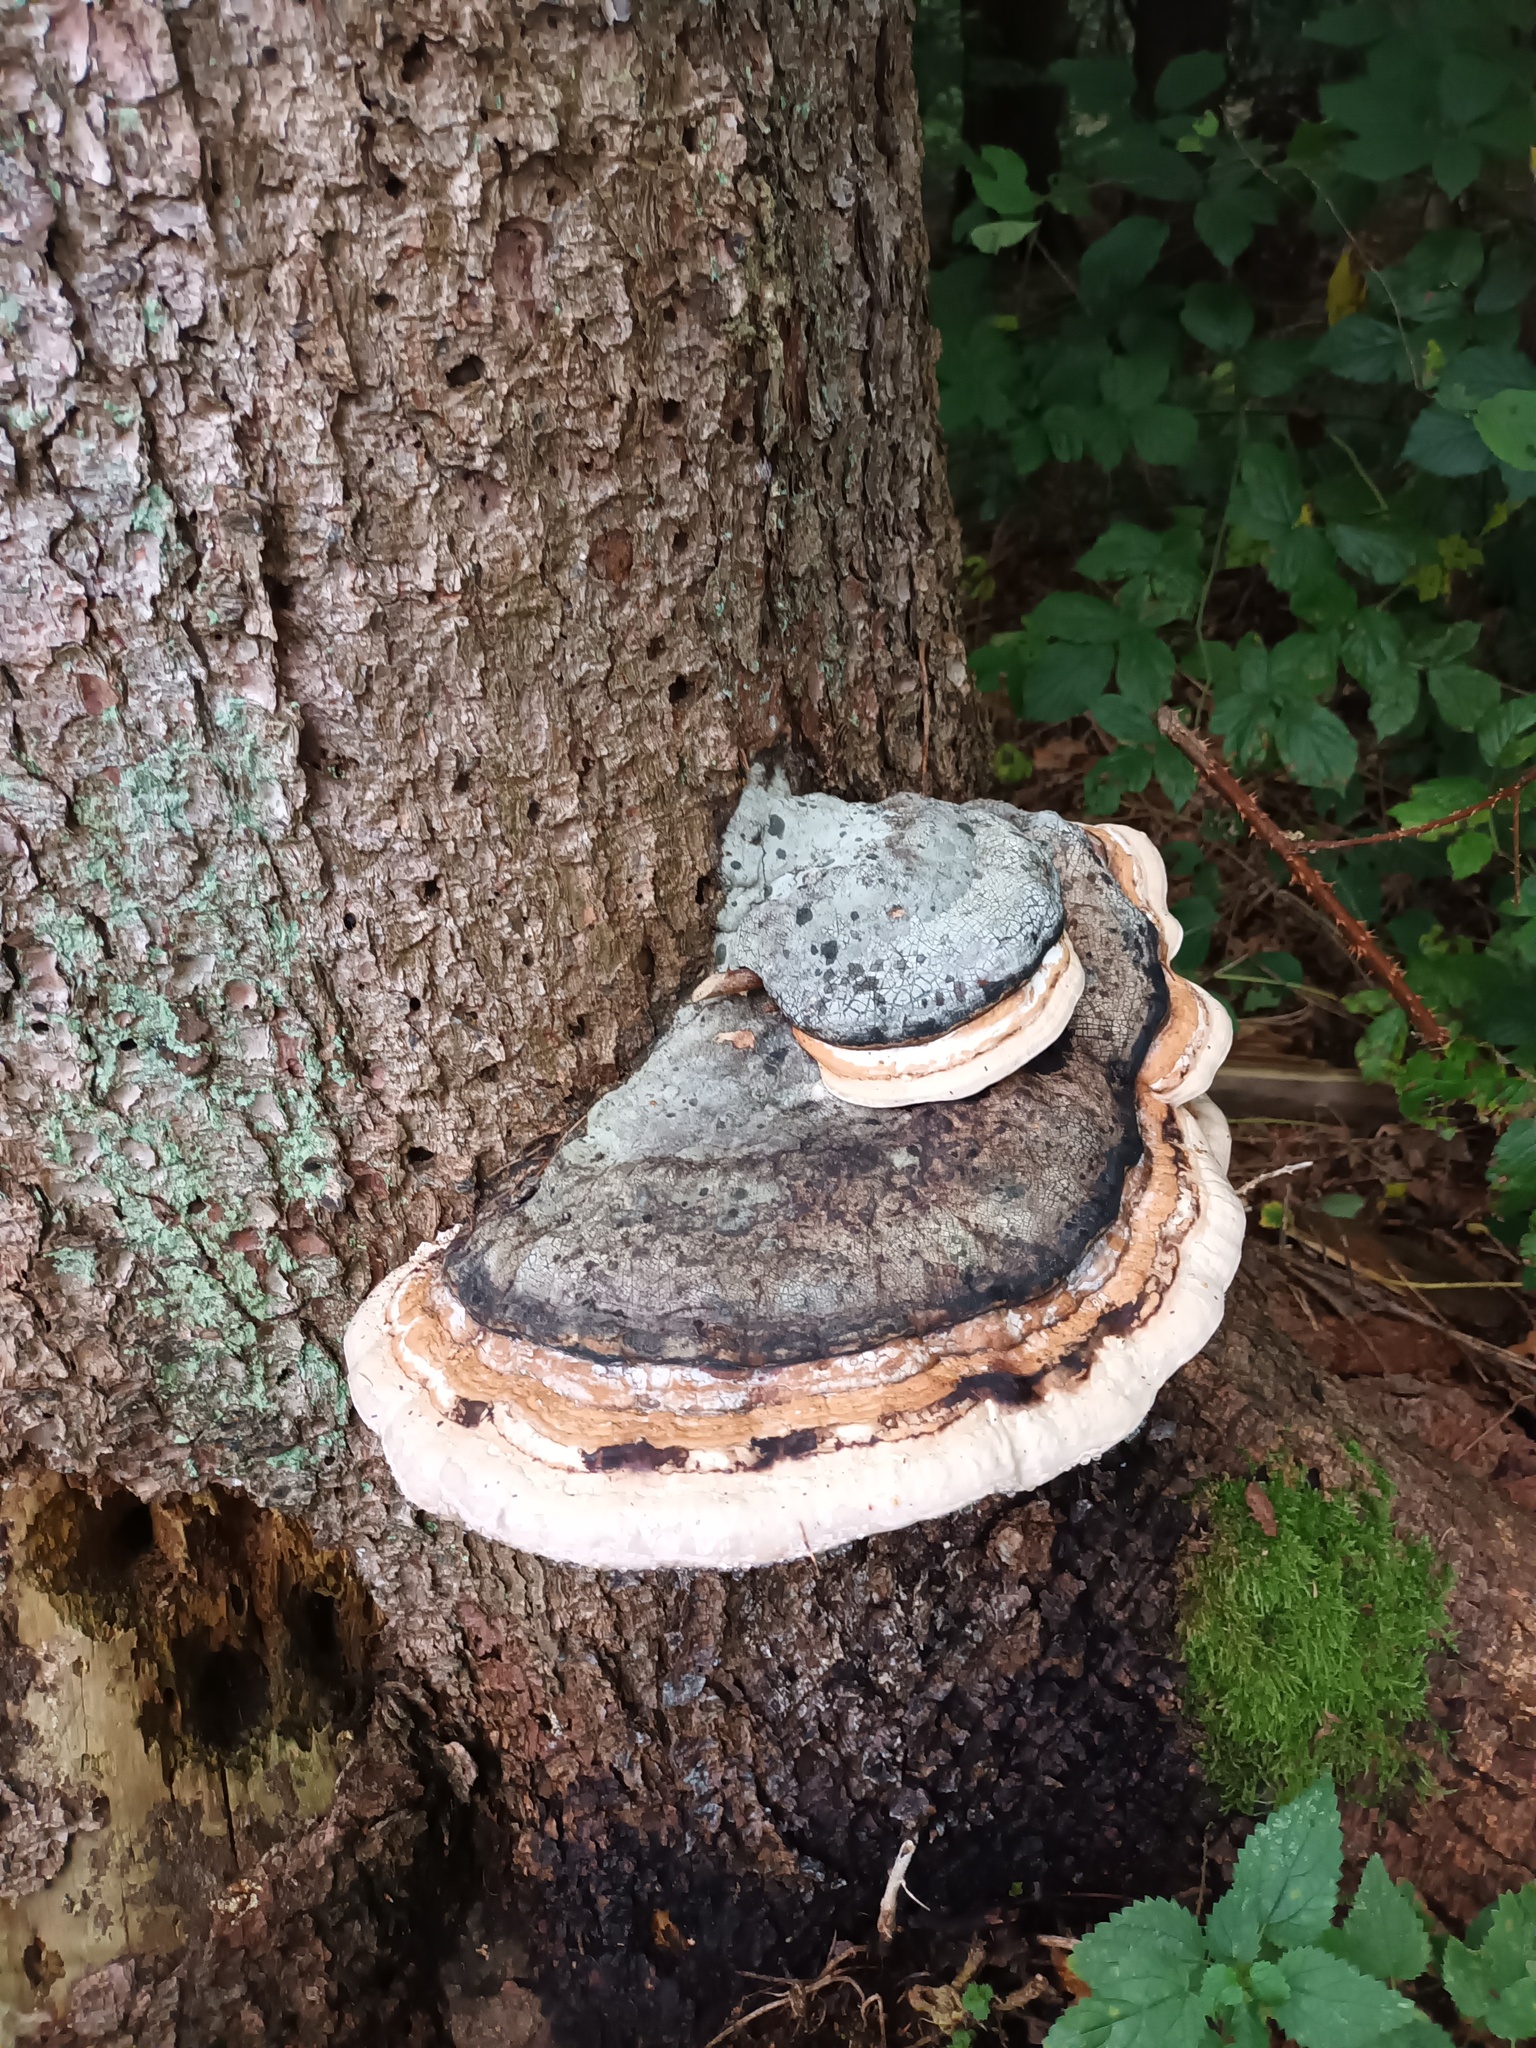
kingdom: Fungi
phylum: Basidiomycota
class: Agaricomycetes
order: Polyporales
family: Fomitopsidaceae
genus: Fomitopsis
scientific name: Fomitopsis pinicola
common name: Red-belted bracket
